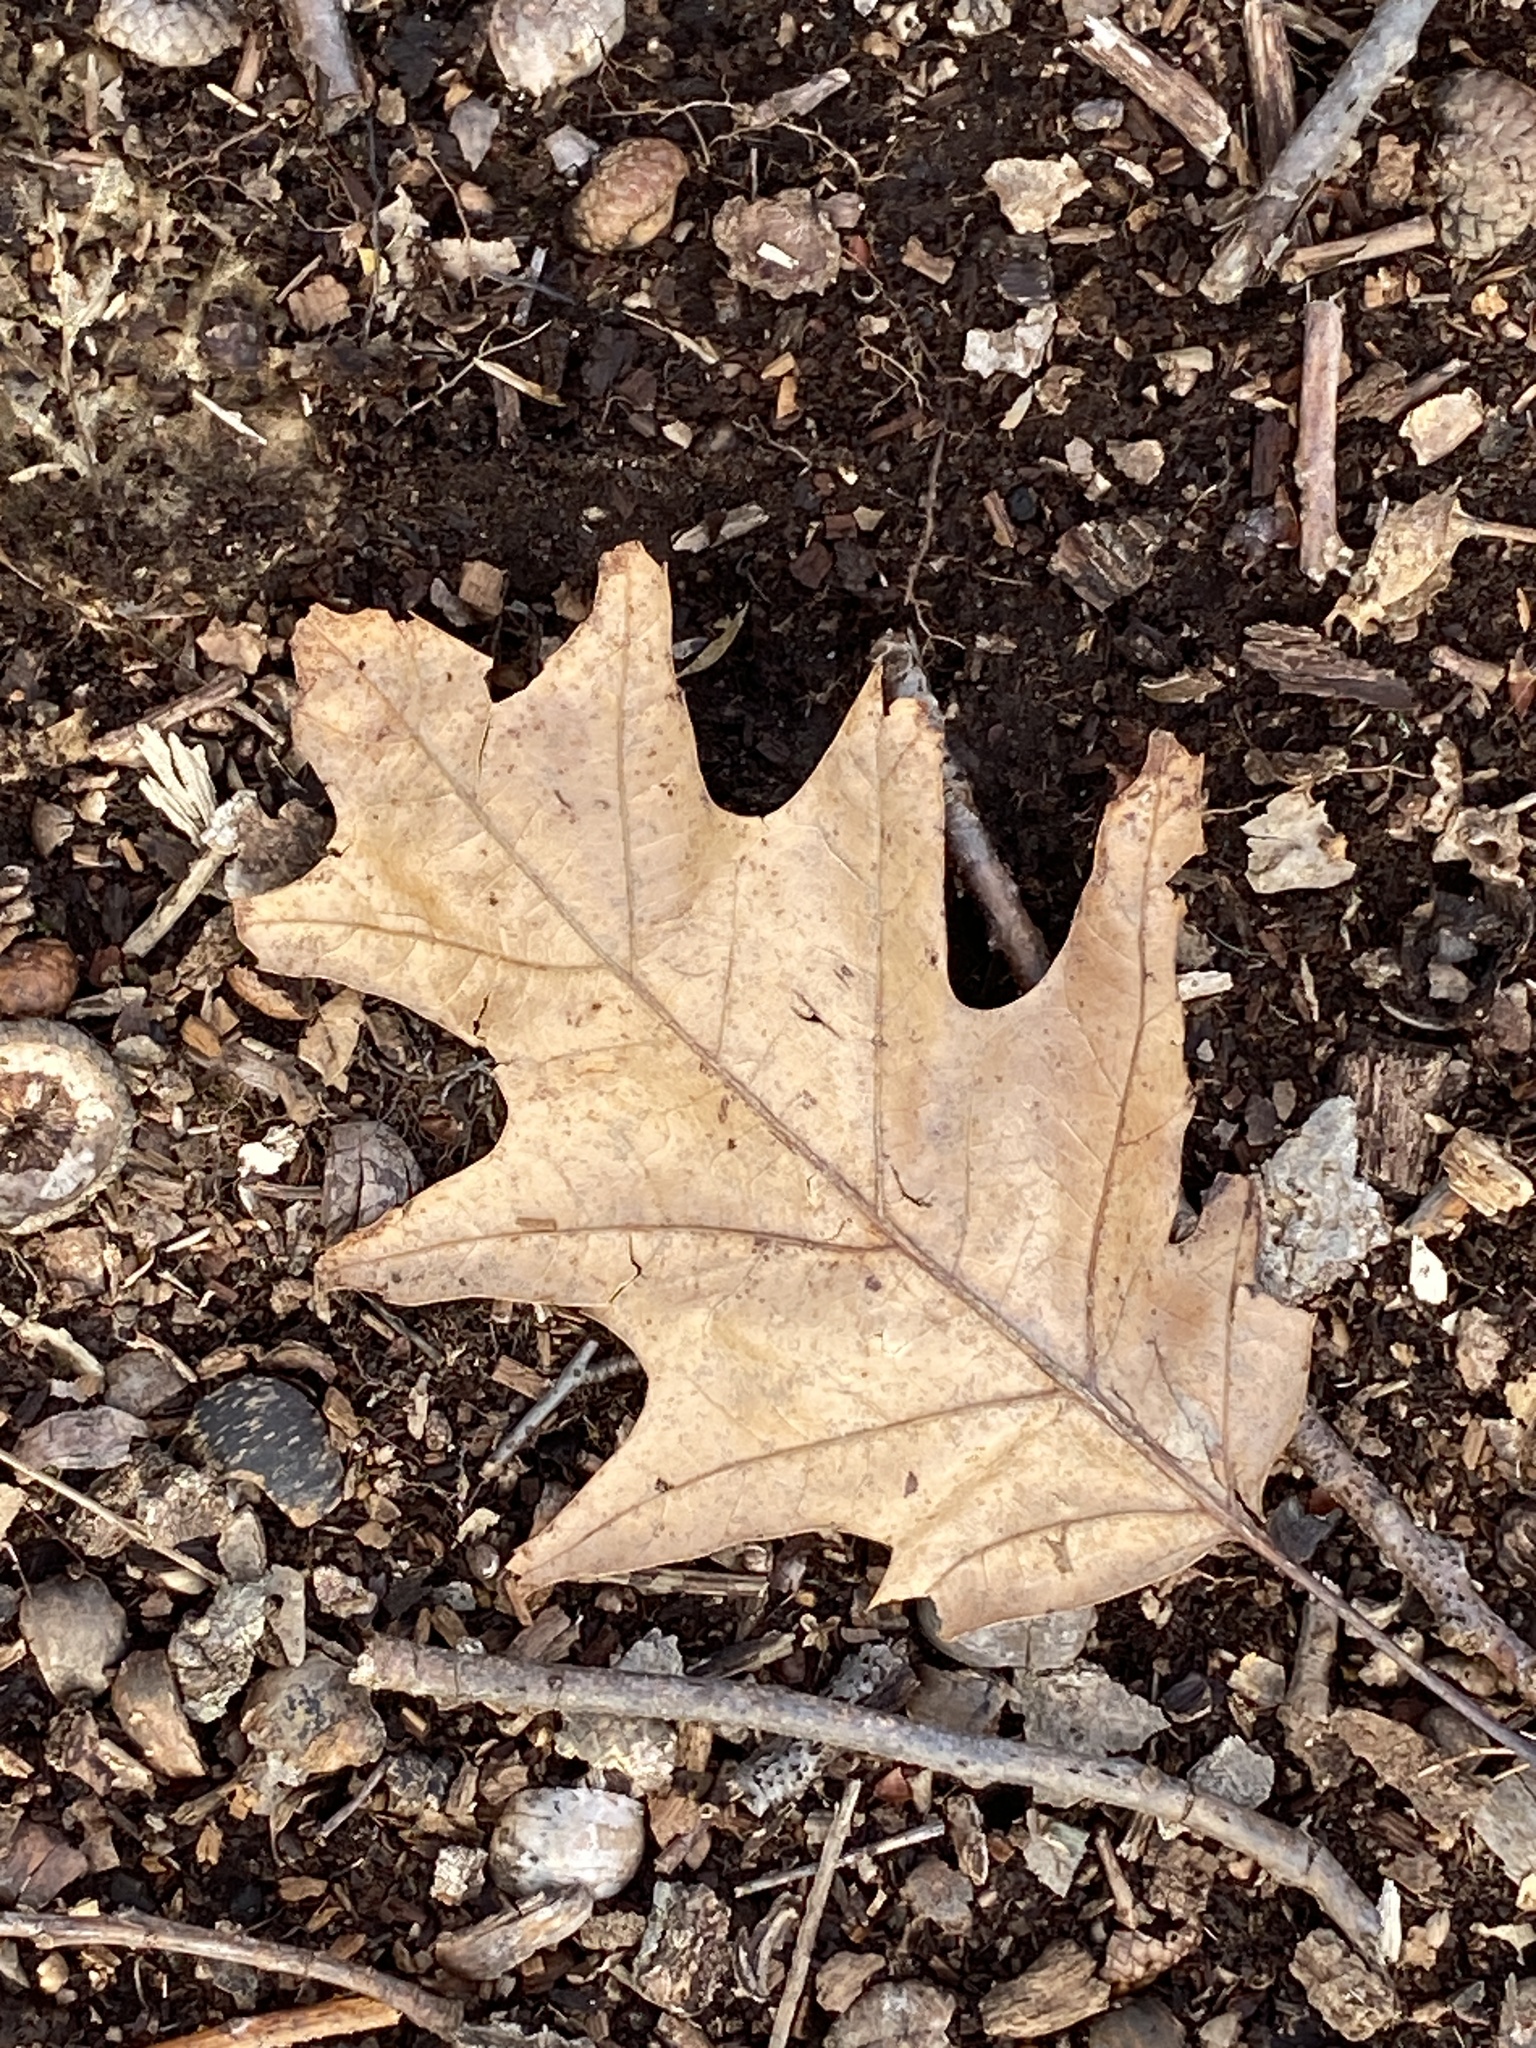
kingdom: Plantae
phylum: Tracheophyta
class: Magnoliopsida
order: Fagales
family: Fagaceae
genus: Quercus
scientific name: Quercus rubra
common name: Red oak
